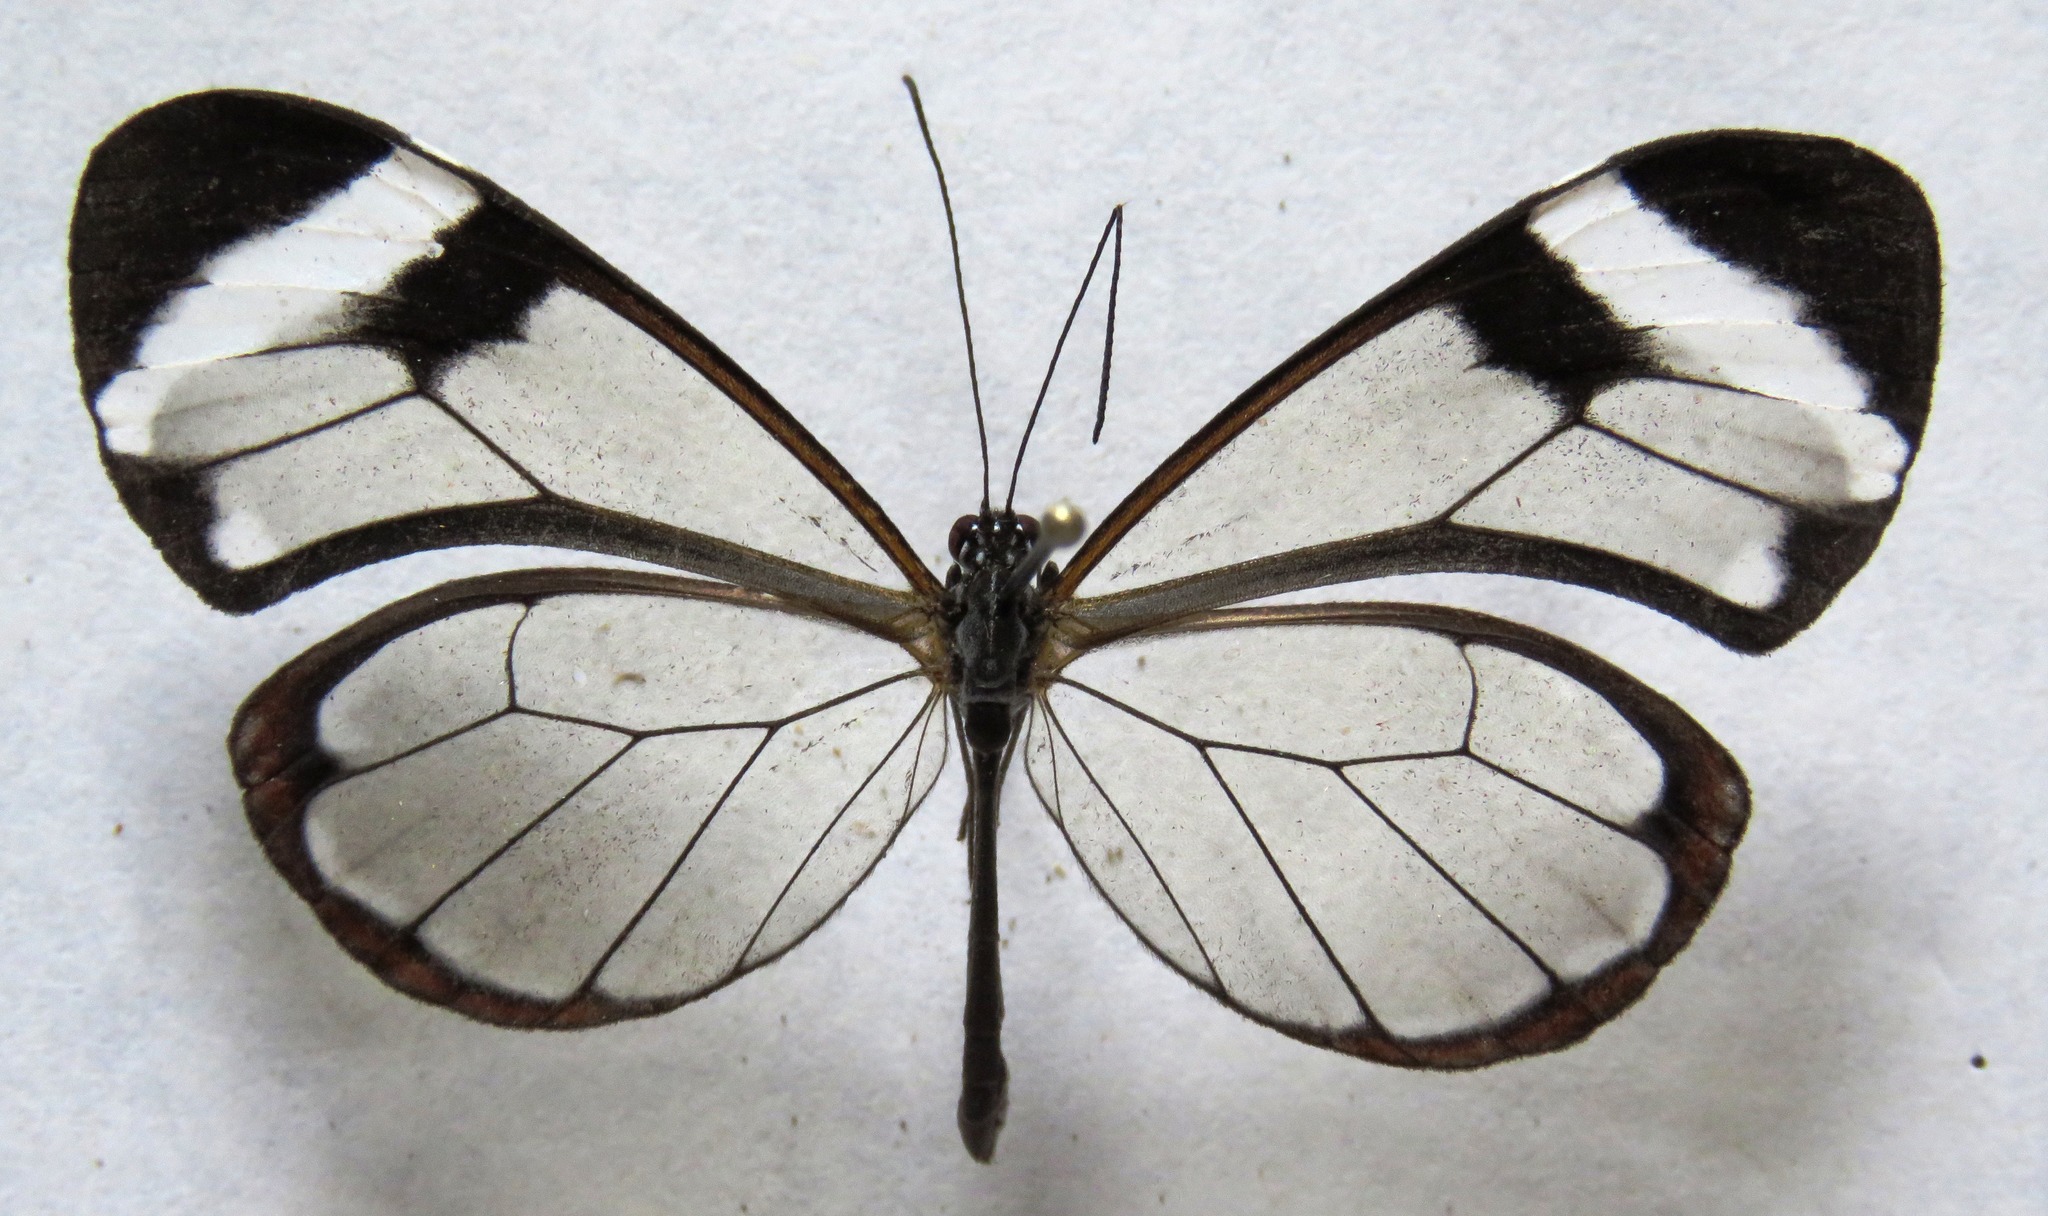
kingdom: Animalia
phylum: Arthropoda
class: Insecta
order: Lepidoptera
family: Nymphalidae
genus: Greta
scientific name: Greta morgane
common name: Thick-tipped greta
